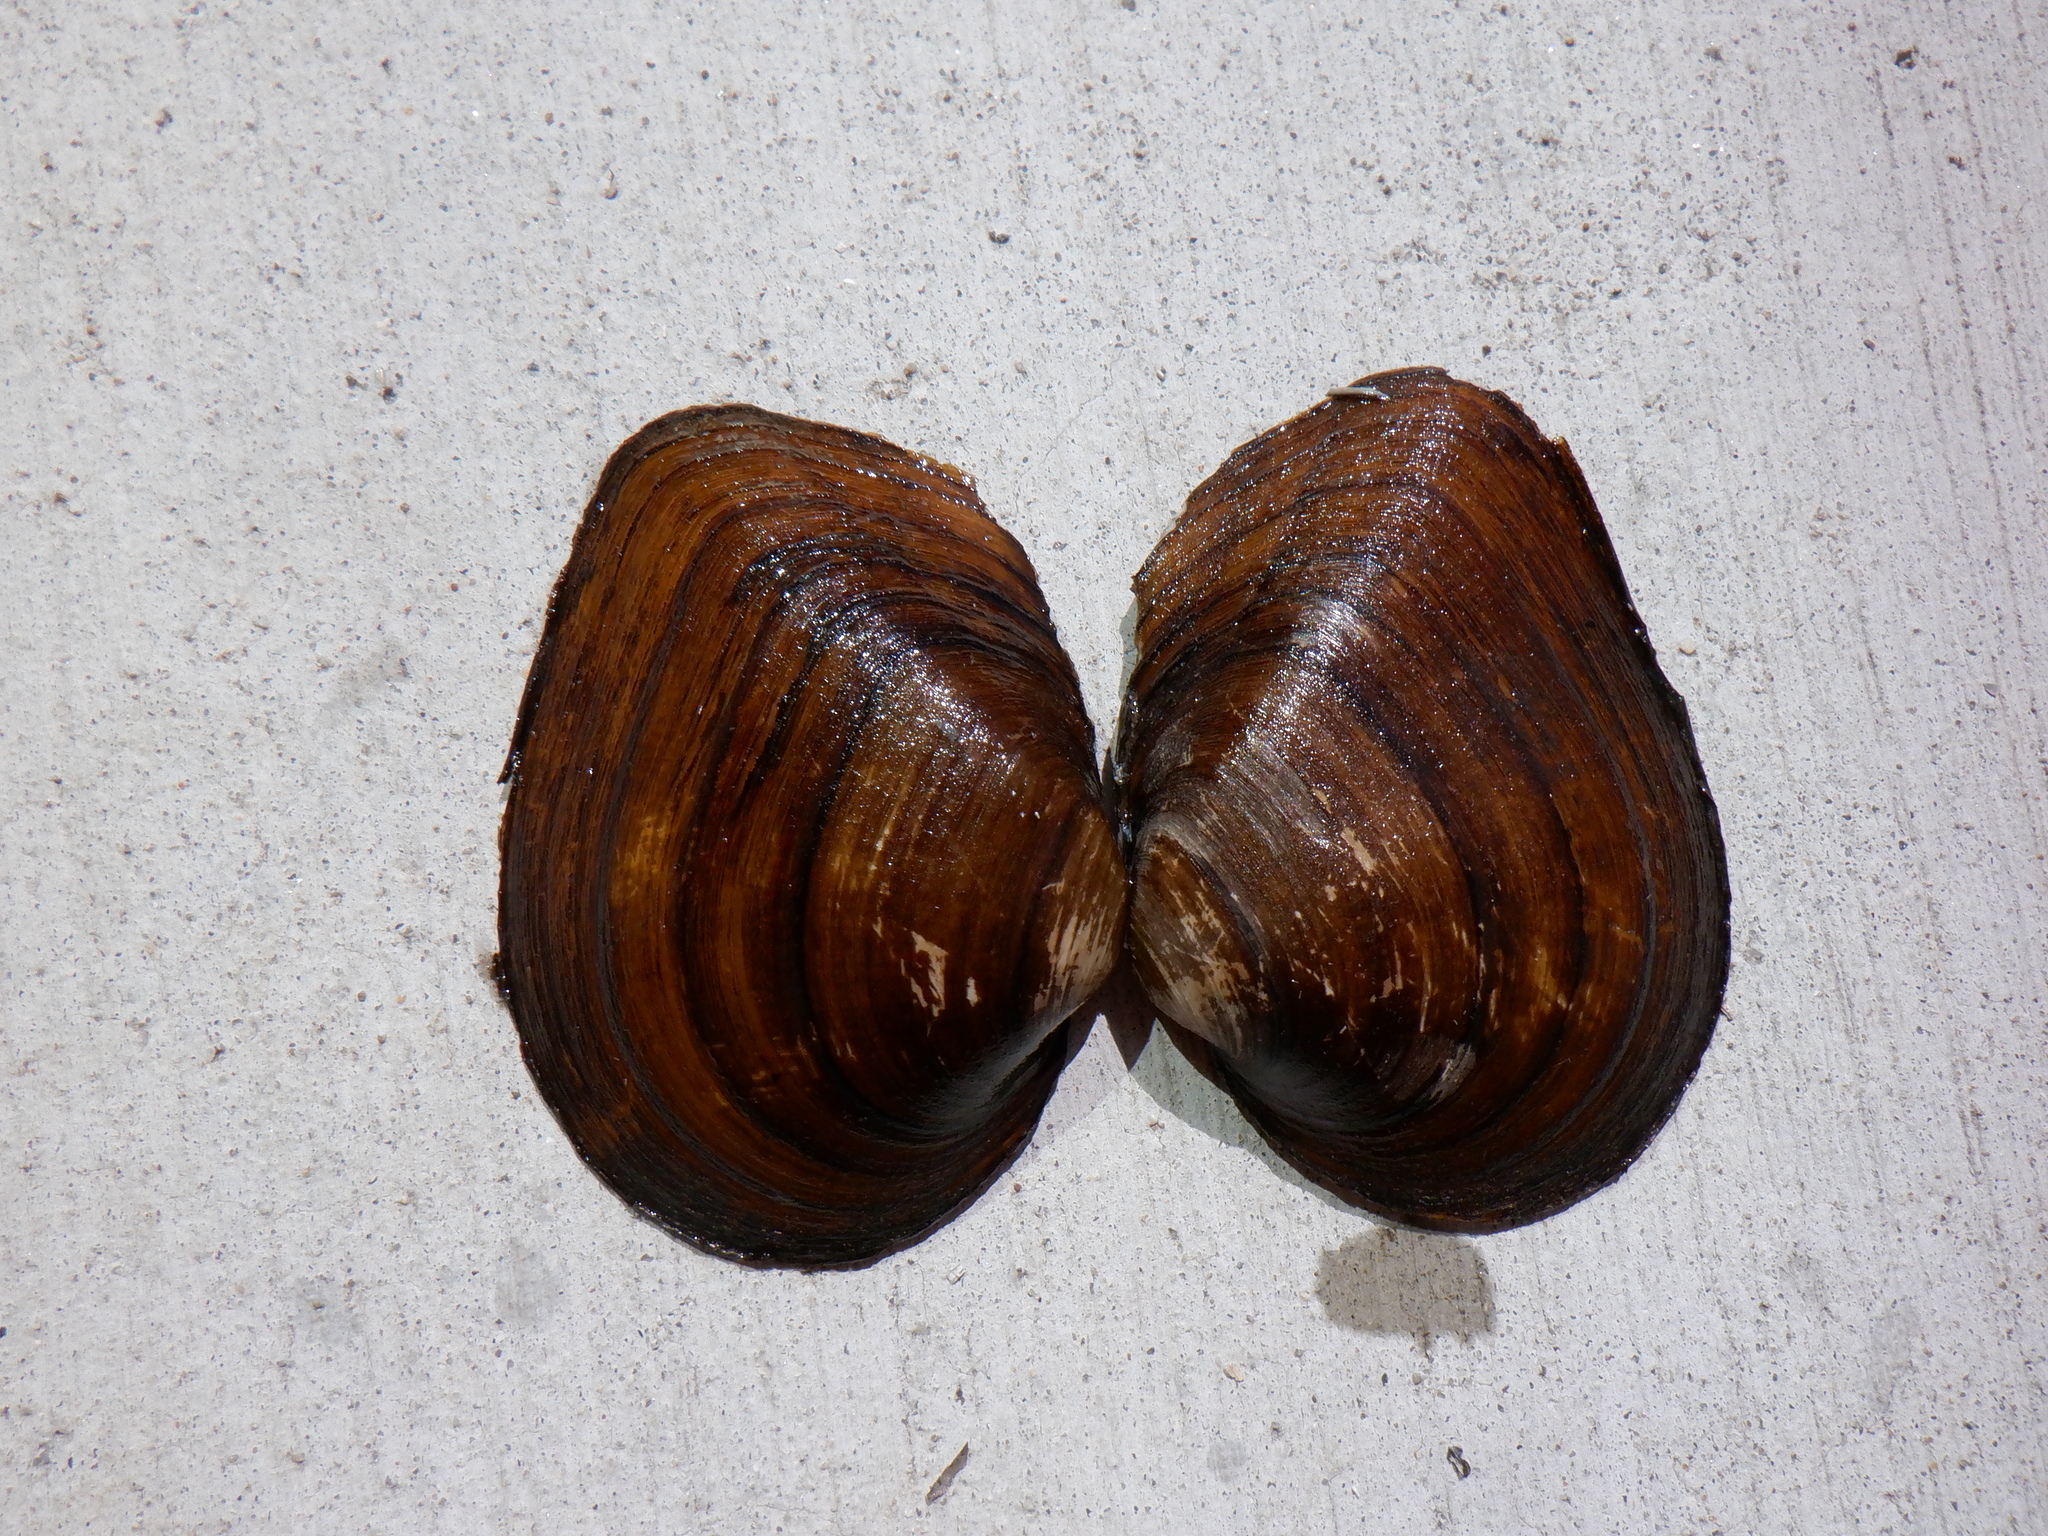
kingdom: Animalia
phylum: Mollusca
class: Bivalvia
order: Unionida
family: Unionidae
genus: Fusconaia
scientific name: Fusconaia flava
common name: Wabash pigtoe
